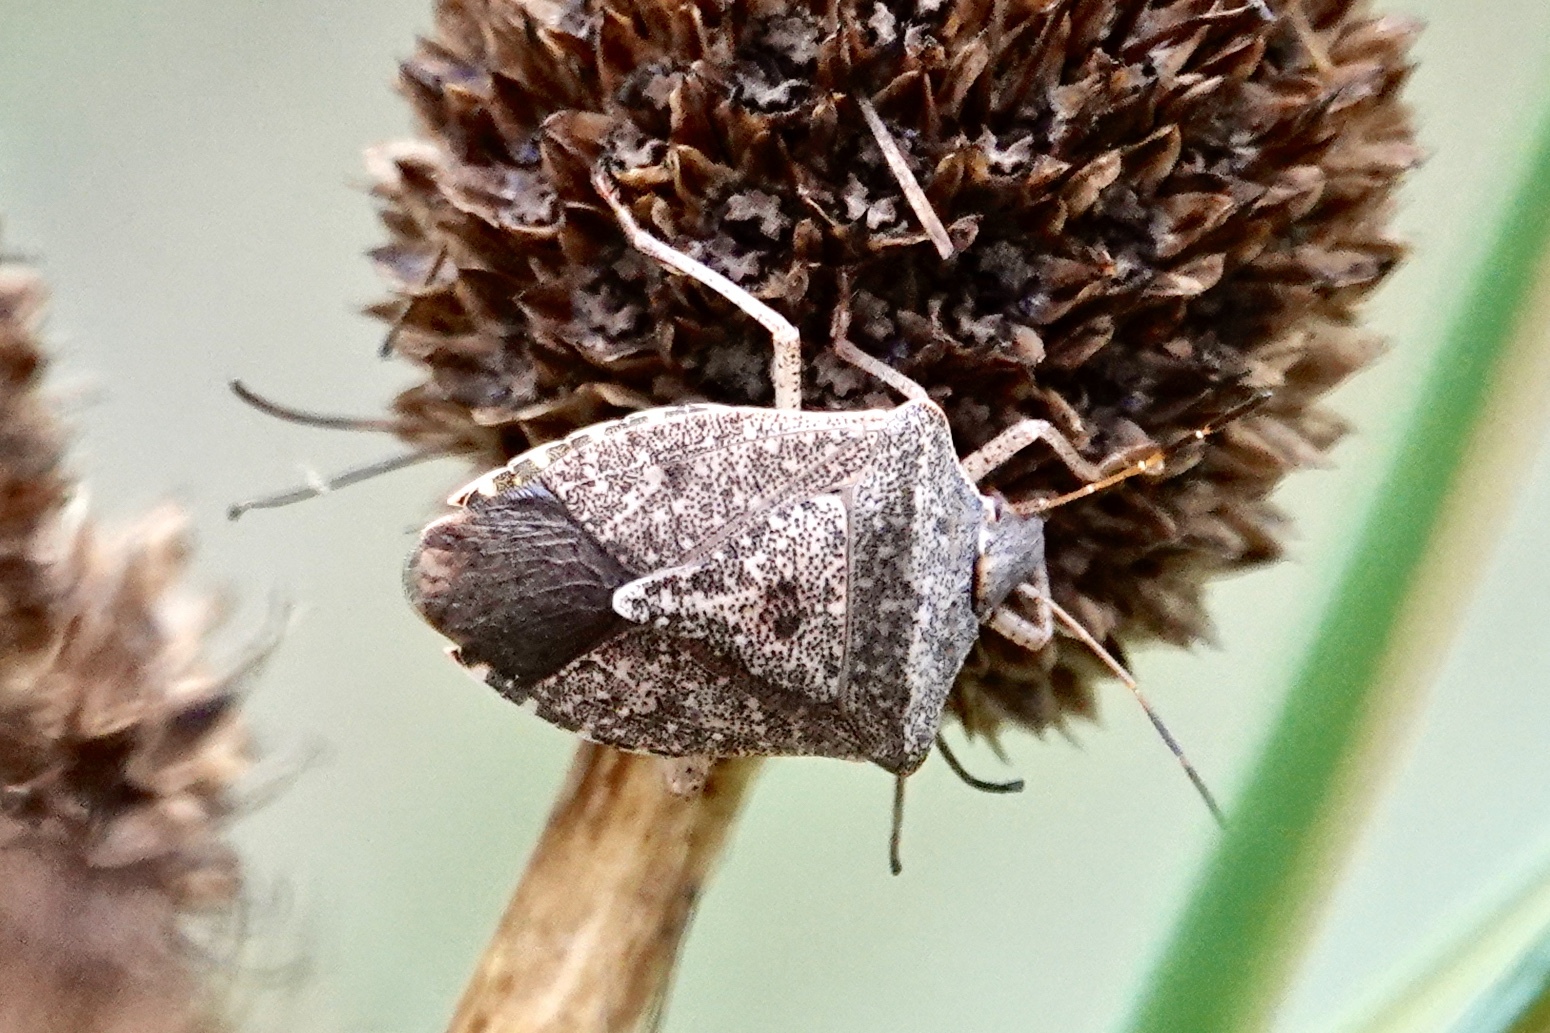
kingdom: Animalia
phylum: Arthropoda
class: Insecta
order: Hemiptera
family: Pentatomidae
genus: Euschistus
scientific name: Euschistus servus
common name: Brown stink bug
